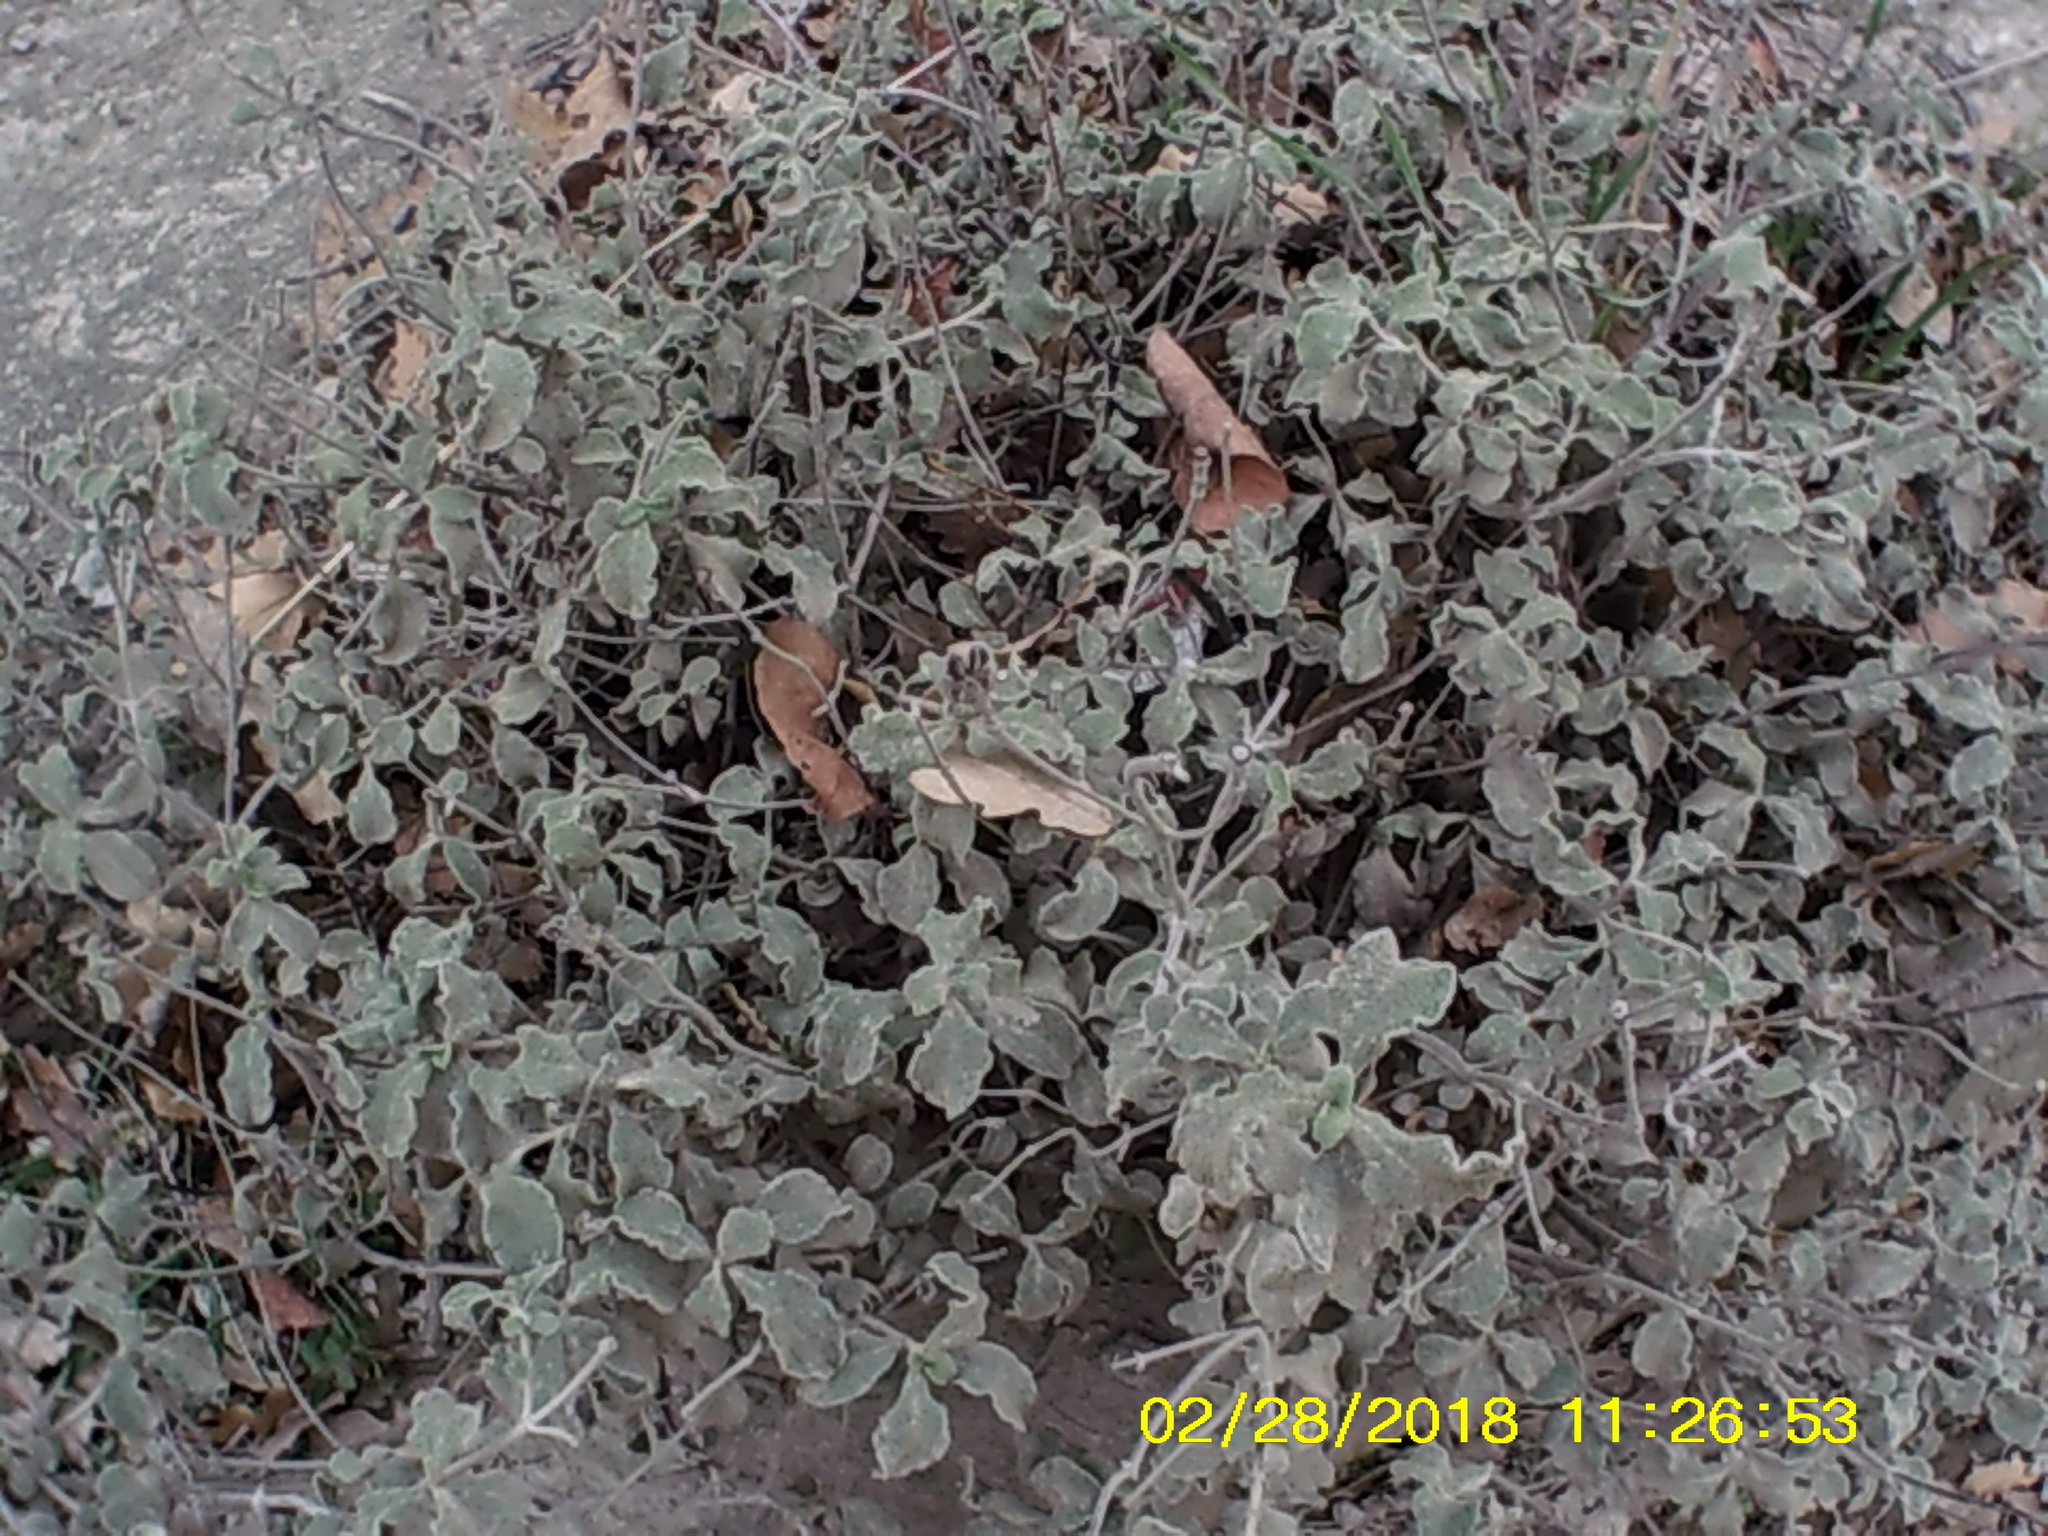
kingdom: Plantae
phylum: Tracheophyta
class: Magnoliopsida
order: Malvales
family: Cistaceae
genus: Cistus
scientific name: Cistus tauricus
